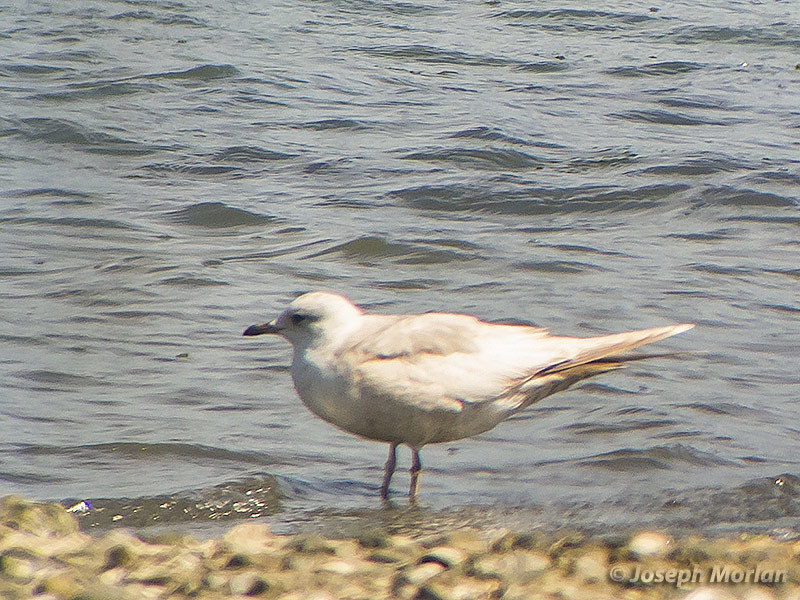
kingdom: Animalia
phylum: Chordata
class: Aves
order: Charadriiformes
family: Laridae
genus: Larus
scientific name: Larus brachyrhynchus
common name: Short-billed gull
